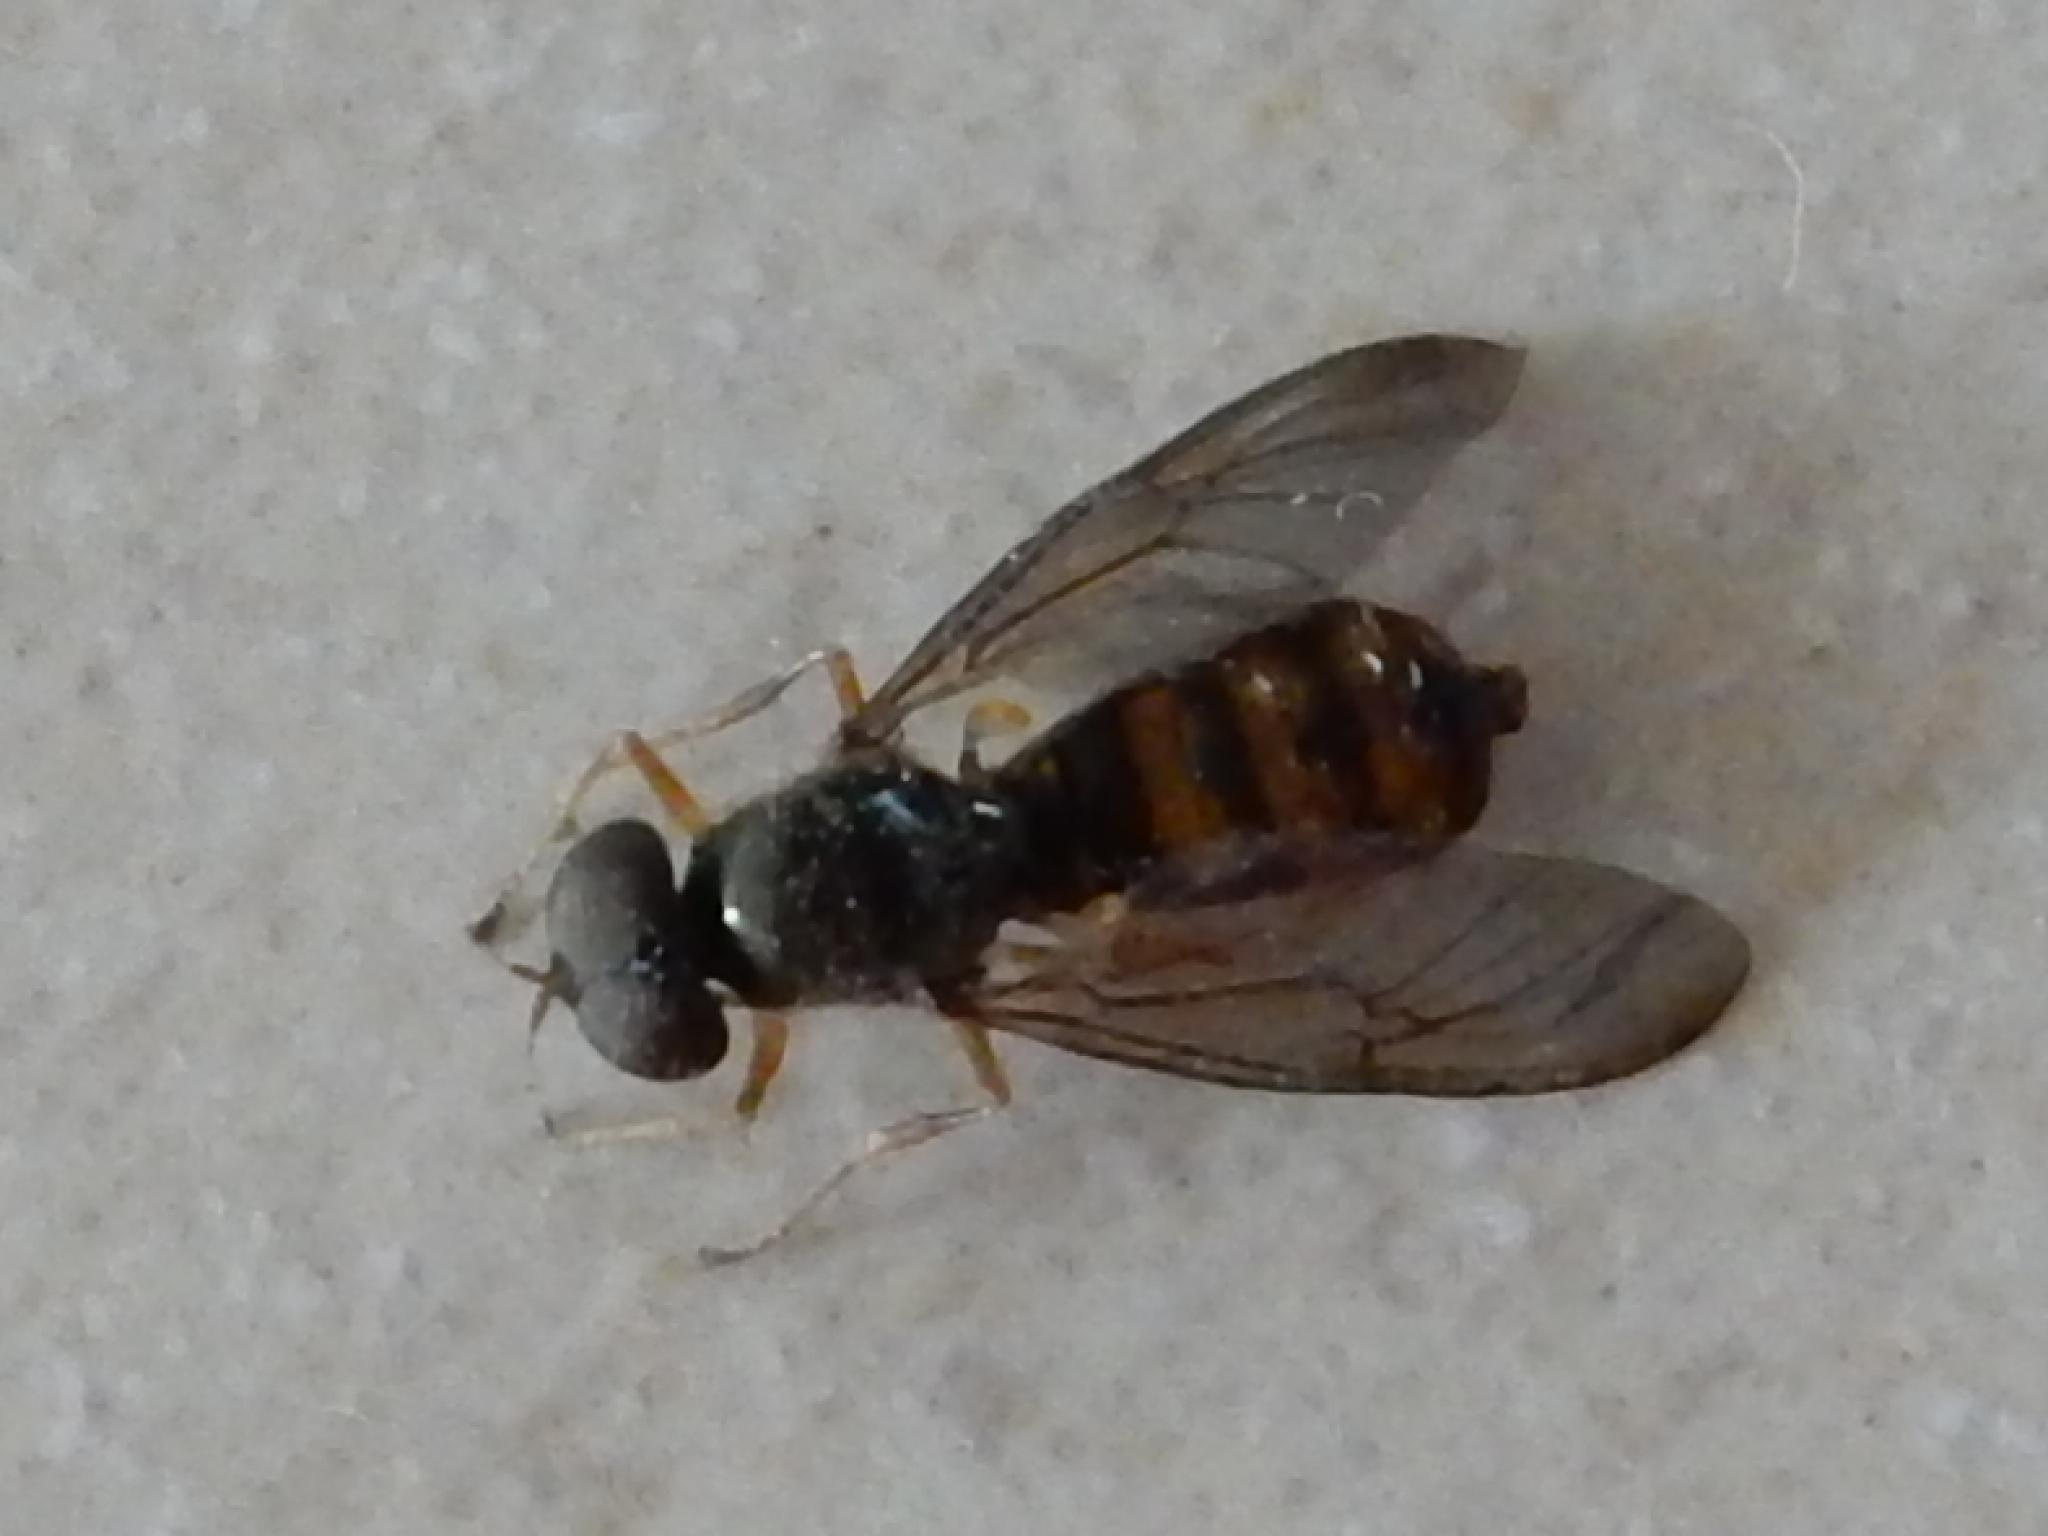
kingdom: Animalia
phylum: Arthropoda
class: Insecta
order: Diptera
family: Stratiomyidae
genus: Chloromyia
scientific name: Chloromyia cingulata
